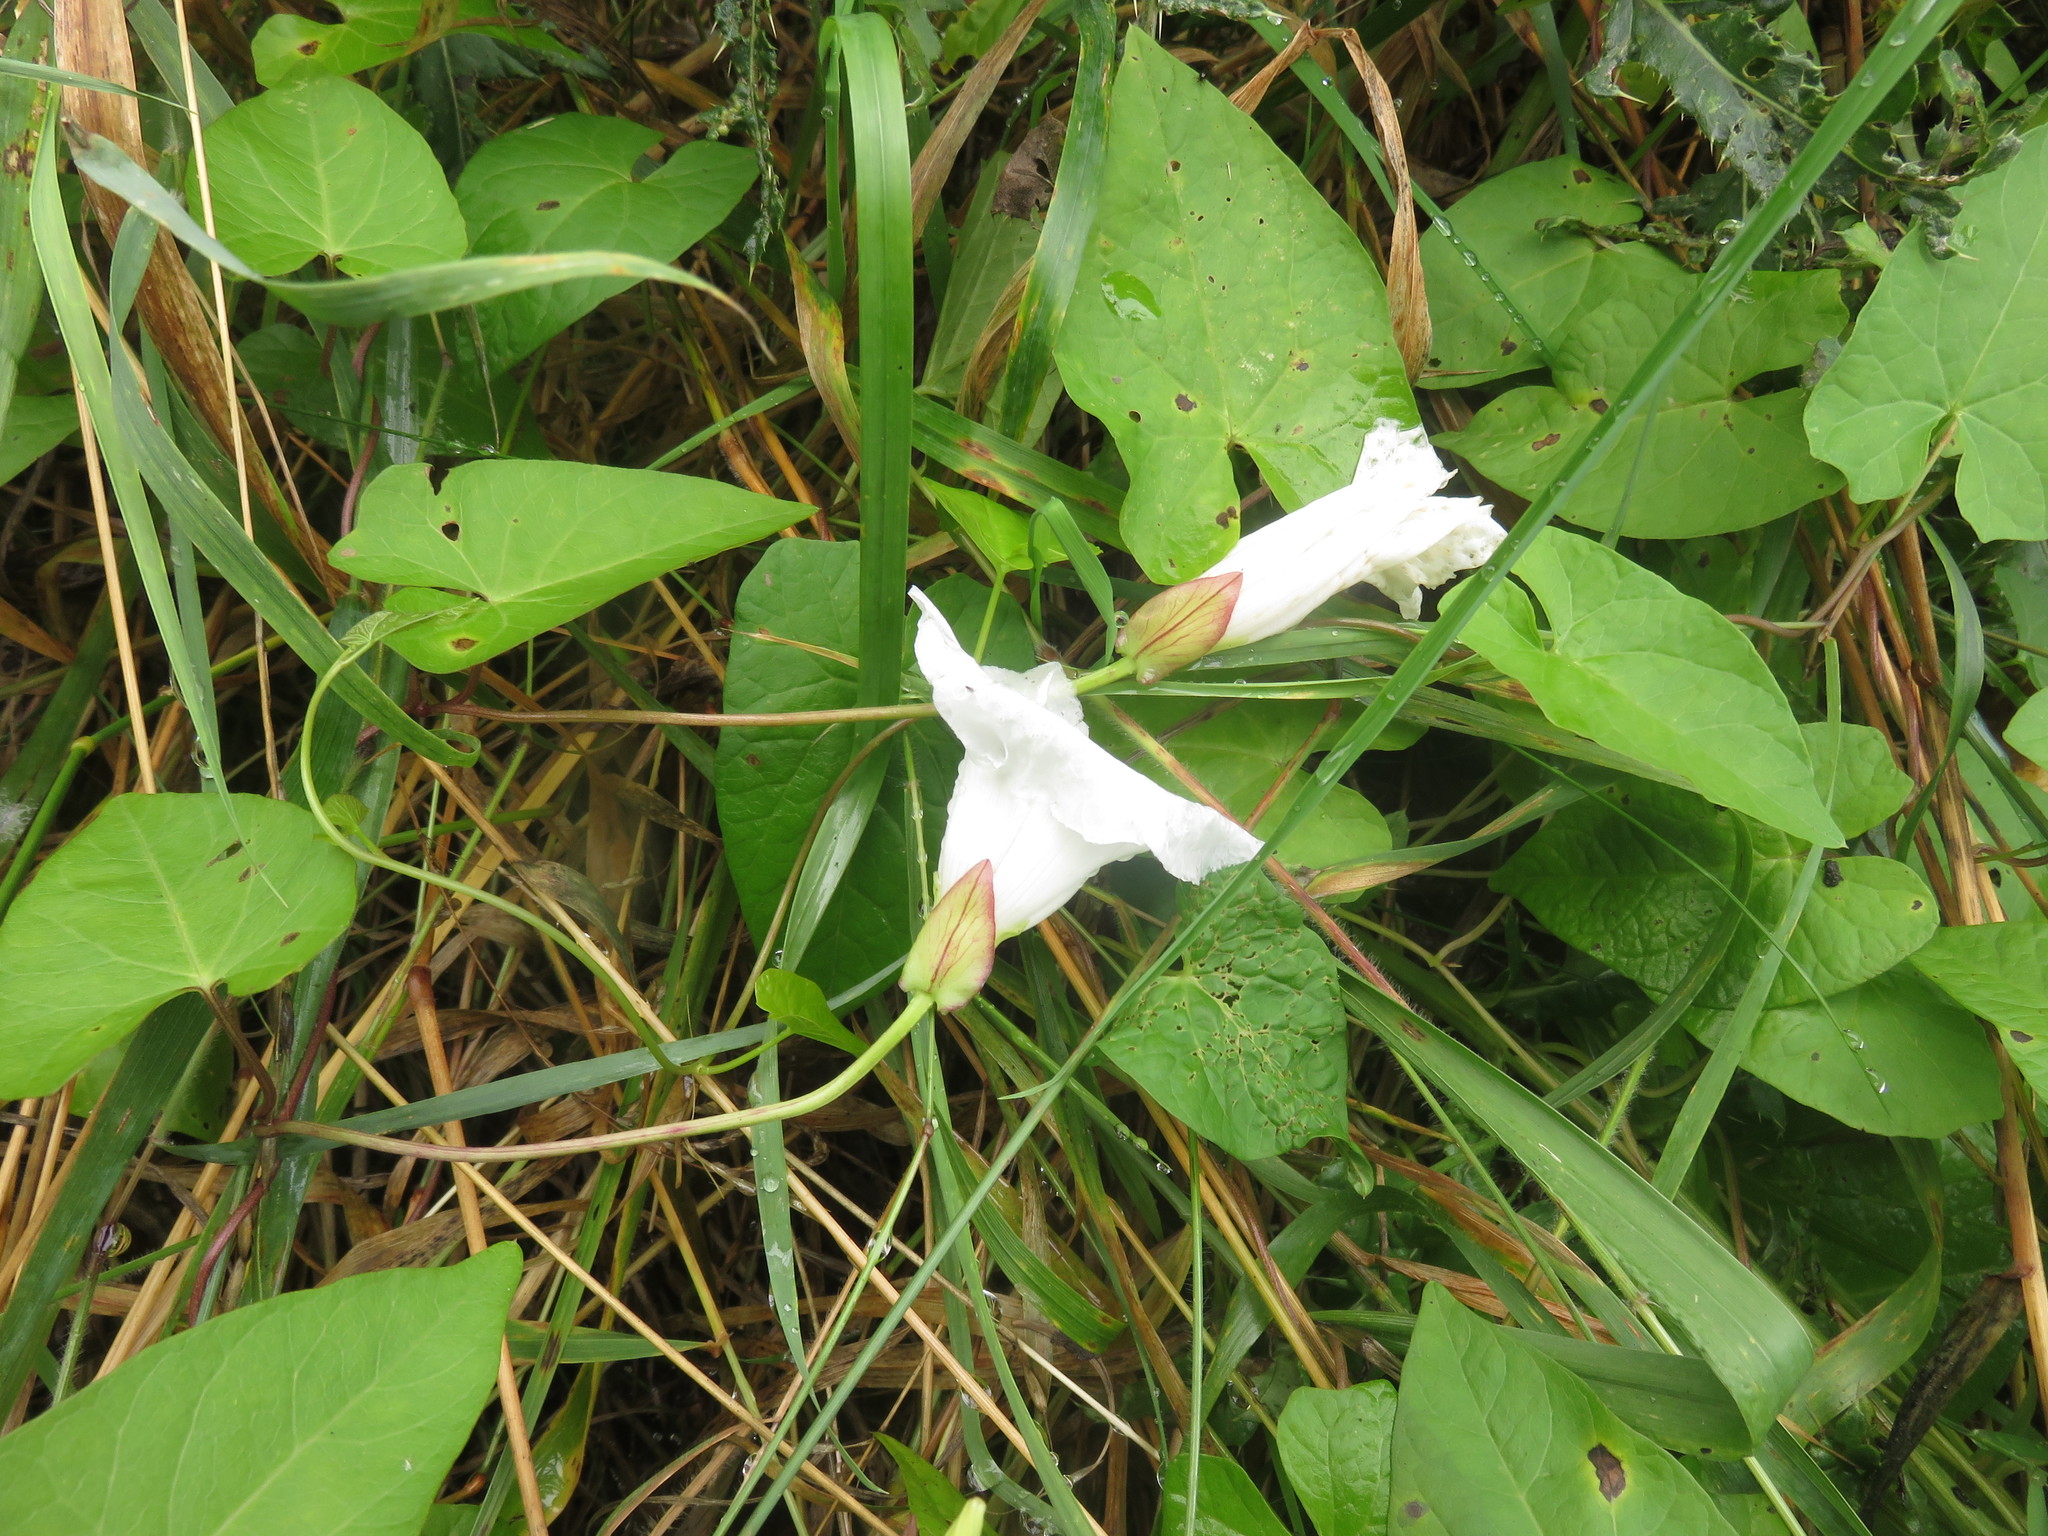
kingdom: Plantae
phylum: Tracheophyta
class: Magnoliopsida
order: Solanales
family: Convolvulaceae
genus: Calystegia
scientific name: Calystegia sepium
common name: Hedge bindweed
